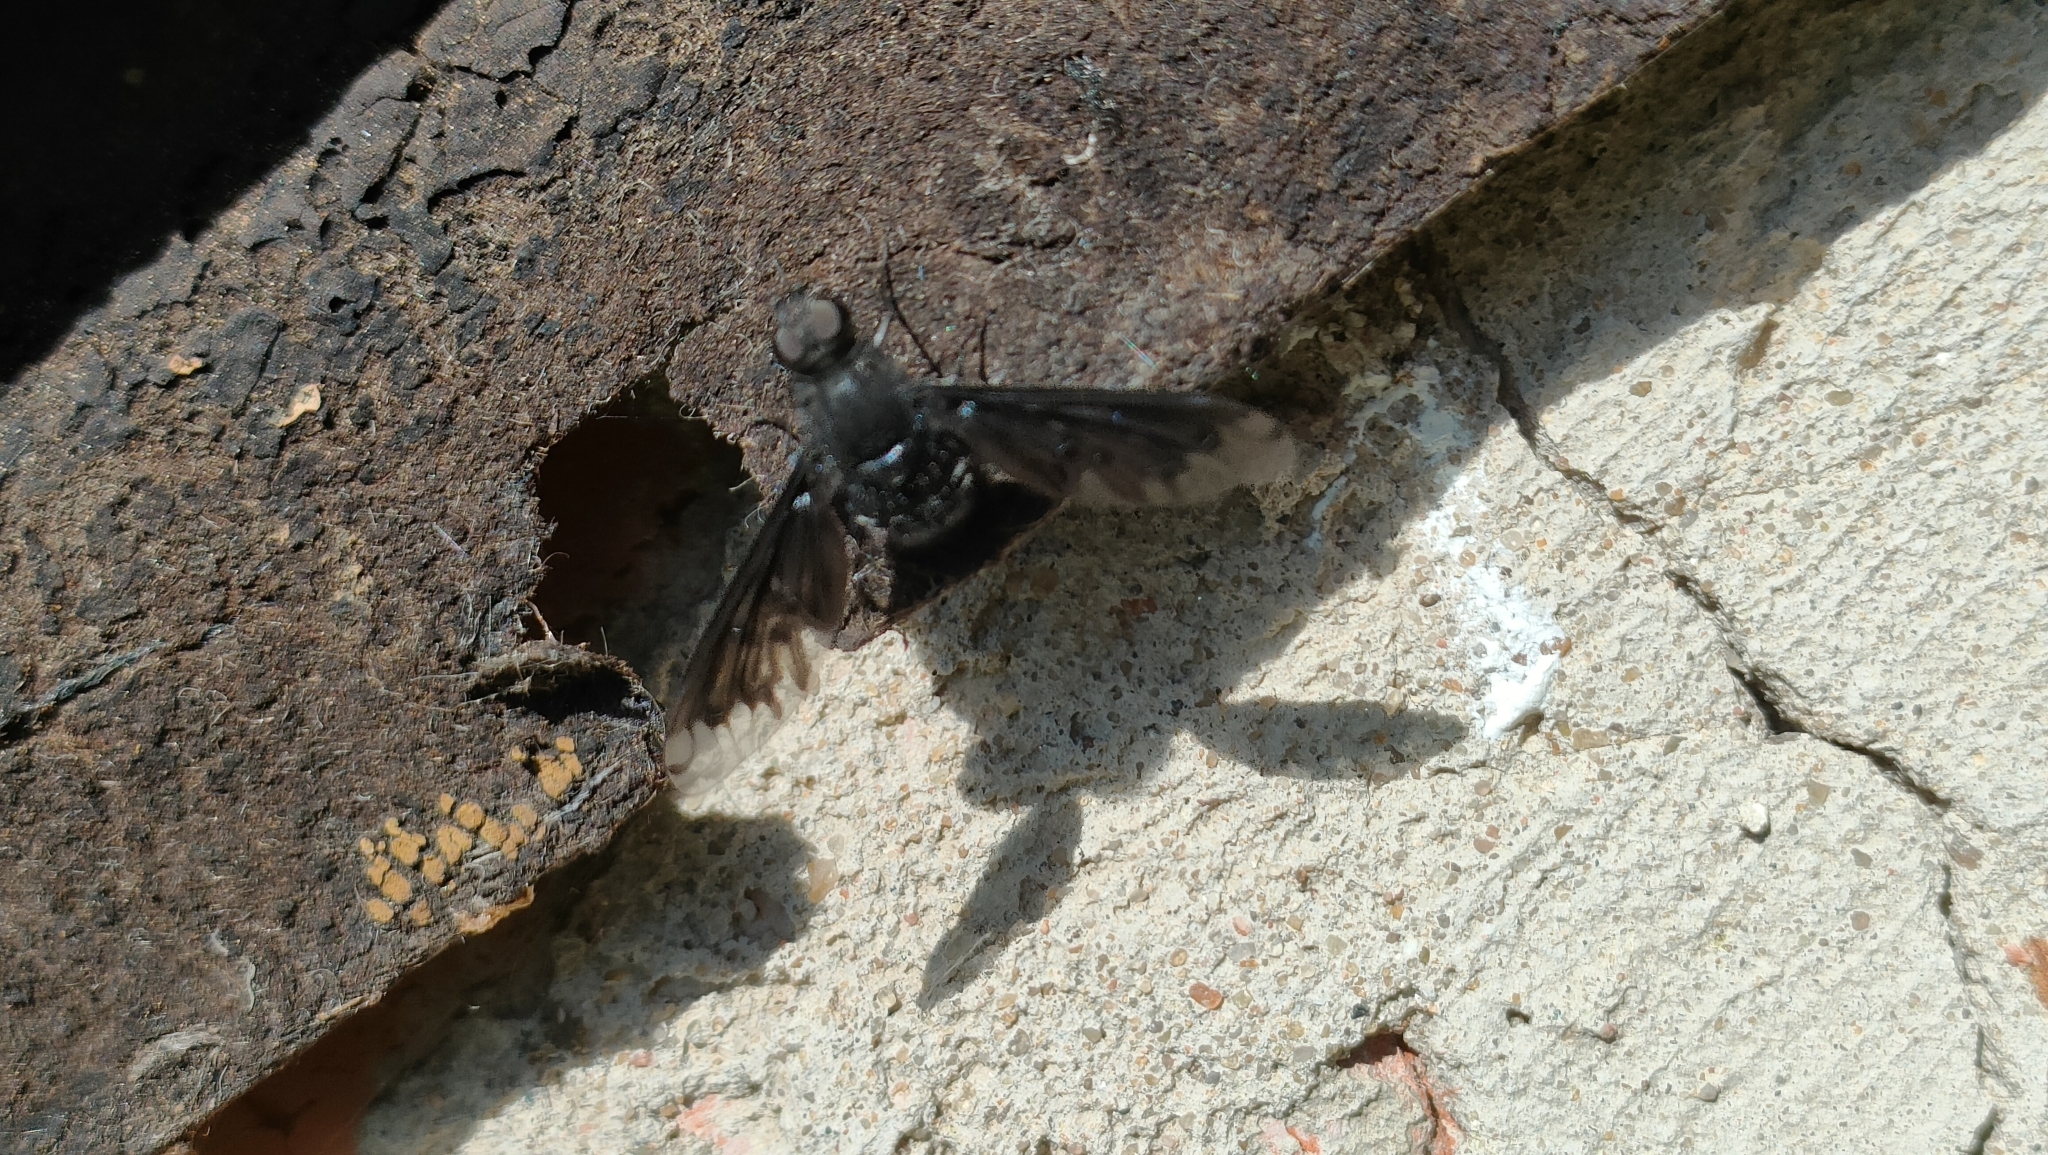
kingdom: Animalia
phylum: Arthropoda
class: Insecta
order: Diptera
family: Bombyliidae
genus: Anthrax
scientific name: Anthrax anthrax
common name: Anthracite bee-fly
